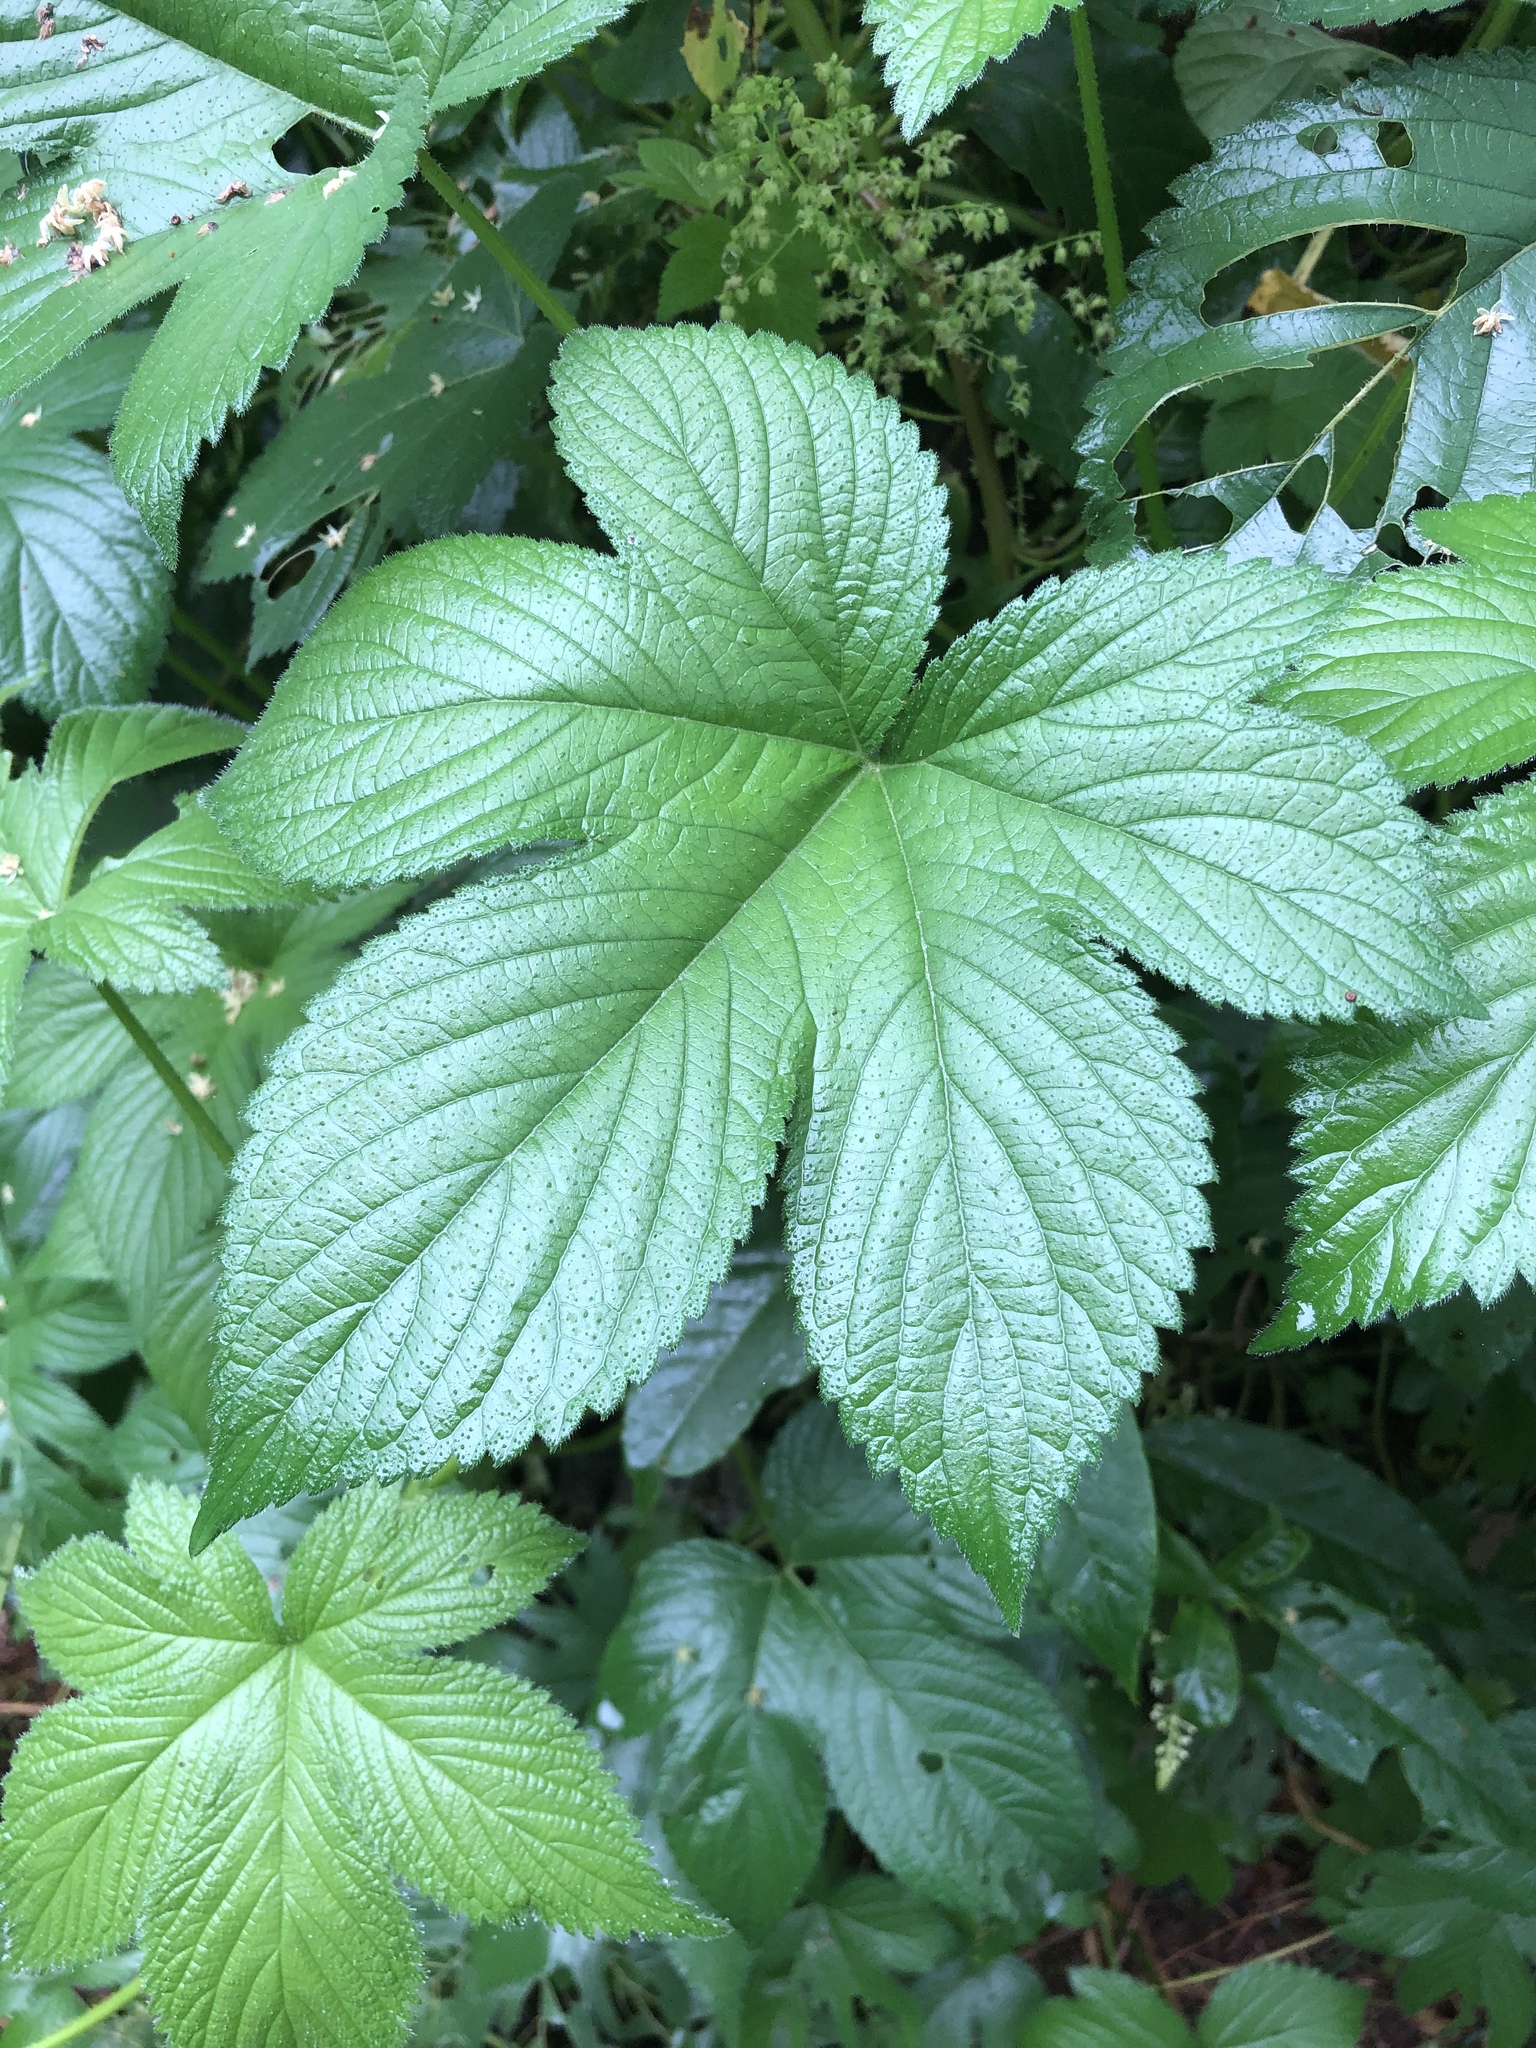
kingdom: Plantae
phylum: Tracheophyta
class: Magnoliopsida
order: Rosales
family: Cannabaceae
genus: Humulus
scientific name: Humulus scandens
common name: Japanese hop
